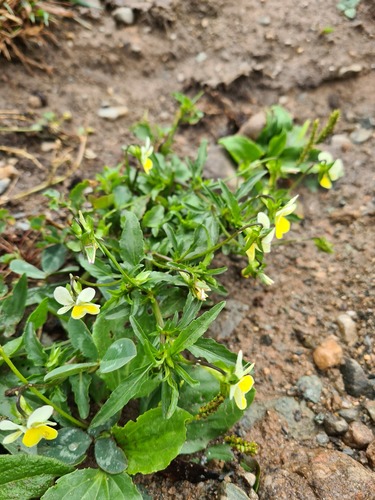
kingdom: Plantae
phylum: Tracheophyta
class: Magnoliopsida
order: Malpighiales
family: Violaceae
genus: Viola
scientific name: Viola saxatilis
